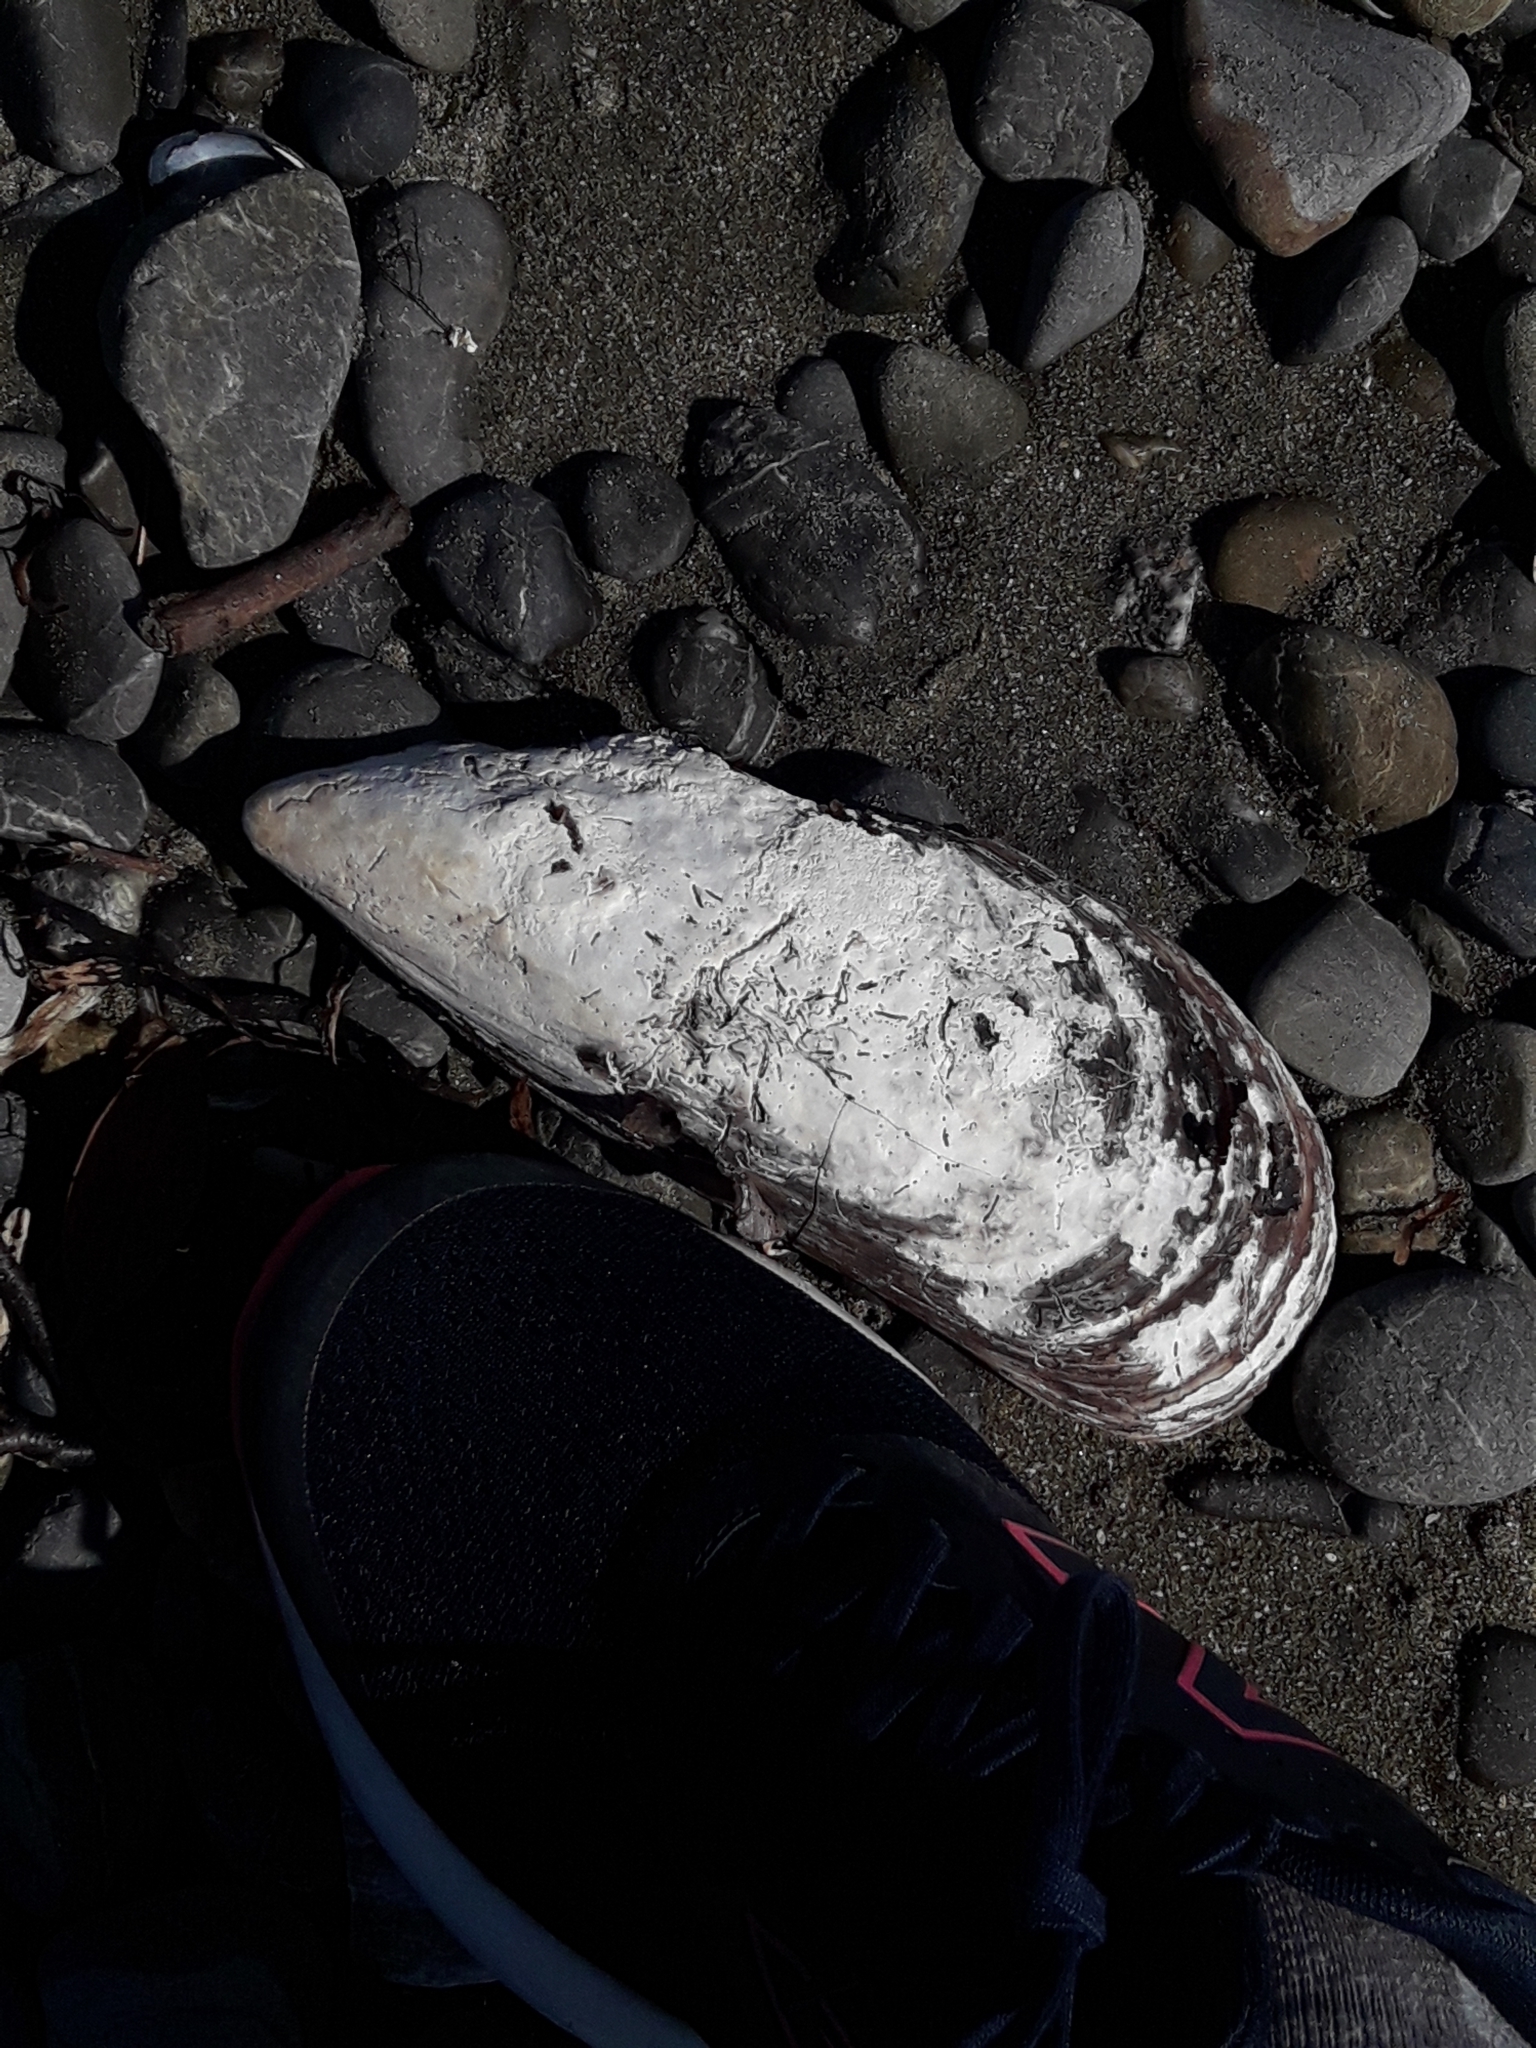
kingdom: Animalia
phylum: Mollusca
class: Bivalvia
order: Mytilida
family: Mytilidae
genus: Perna
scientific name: Perna canaliculus
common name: New zealand greenshelltm
